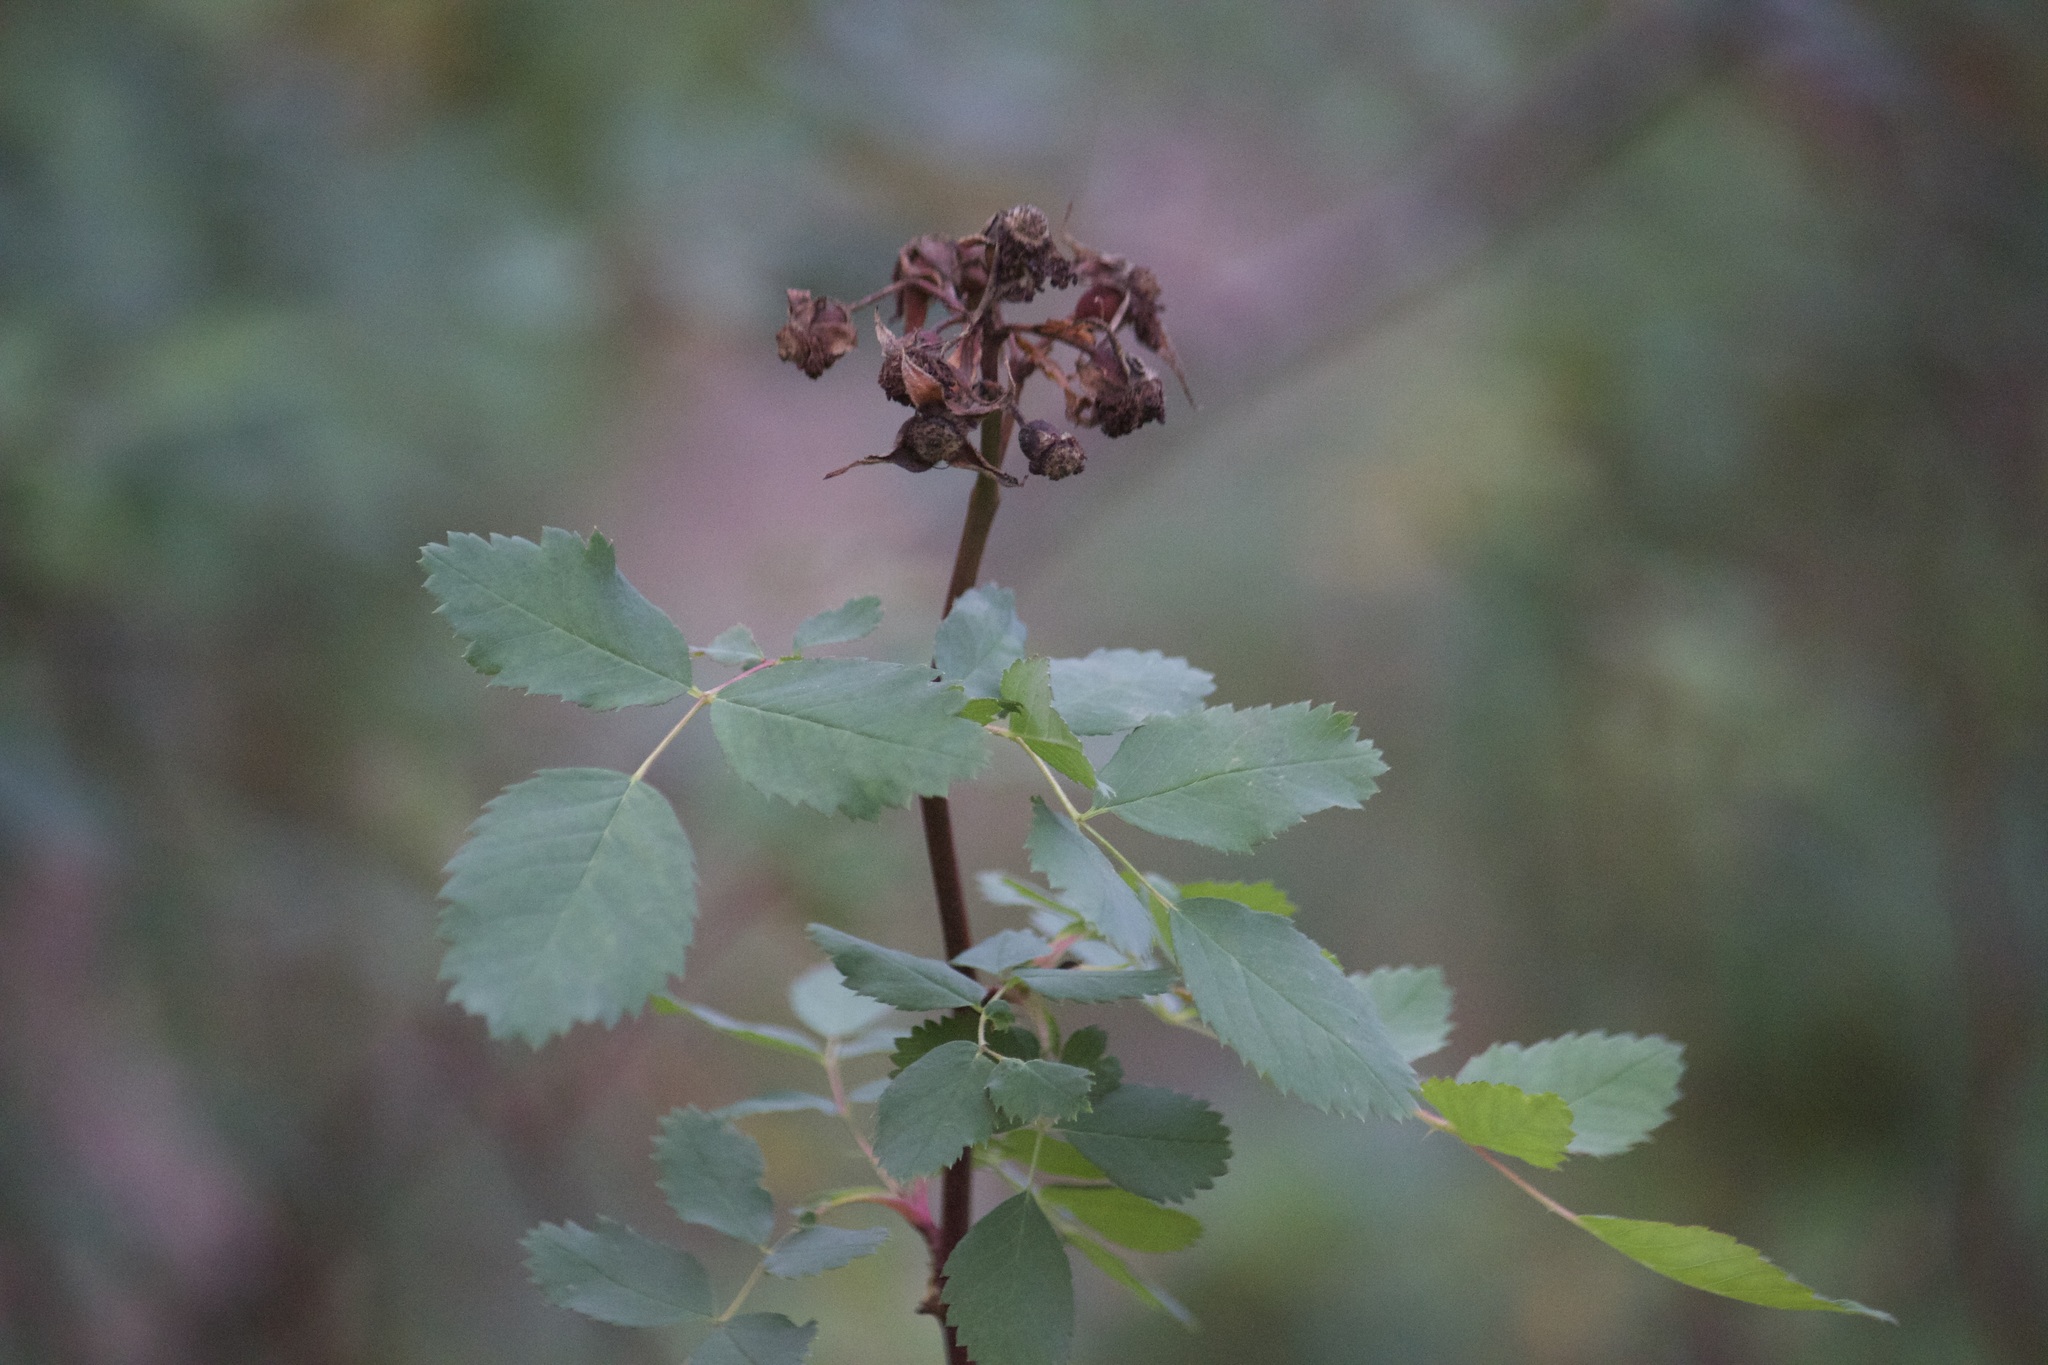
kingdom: Plantae
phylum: Tracheophyta
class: Magnoliopsida
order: Rosales
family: Rosaceae
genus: Rosa
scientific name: Rosa californica
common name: California rose
